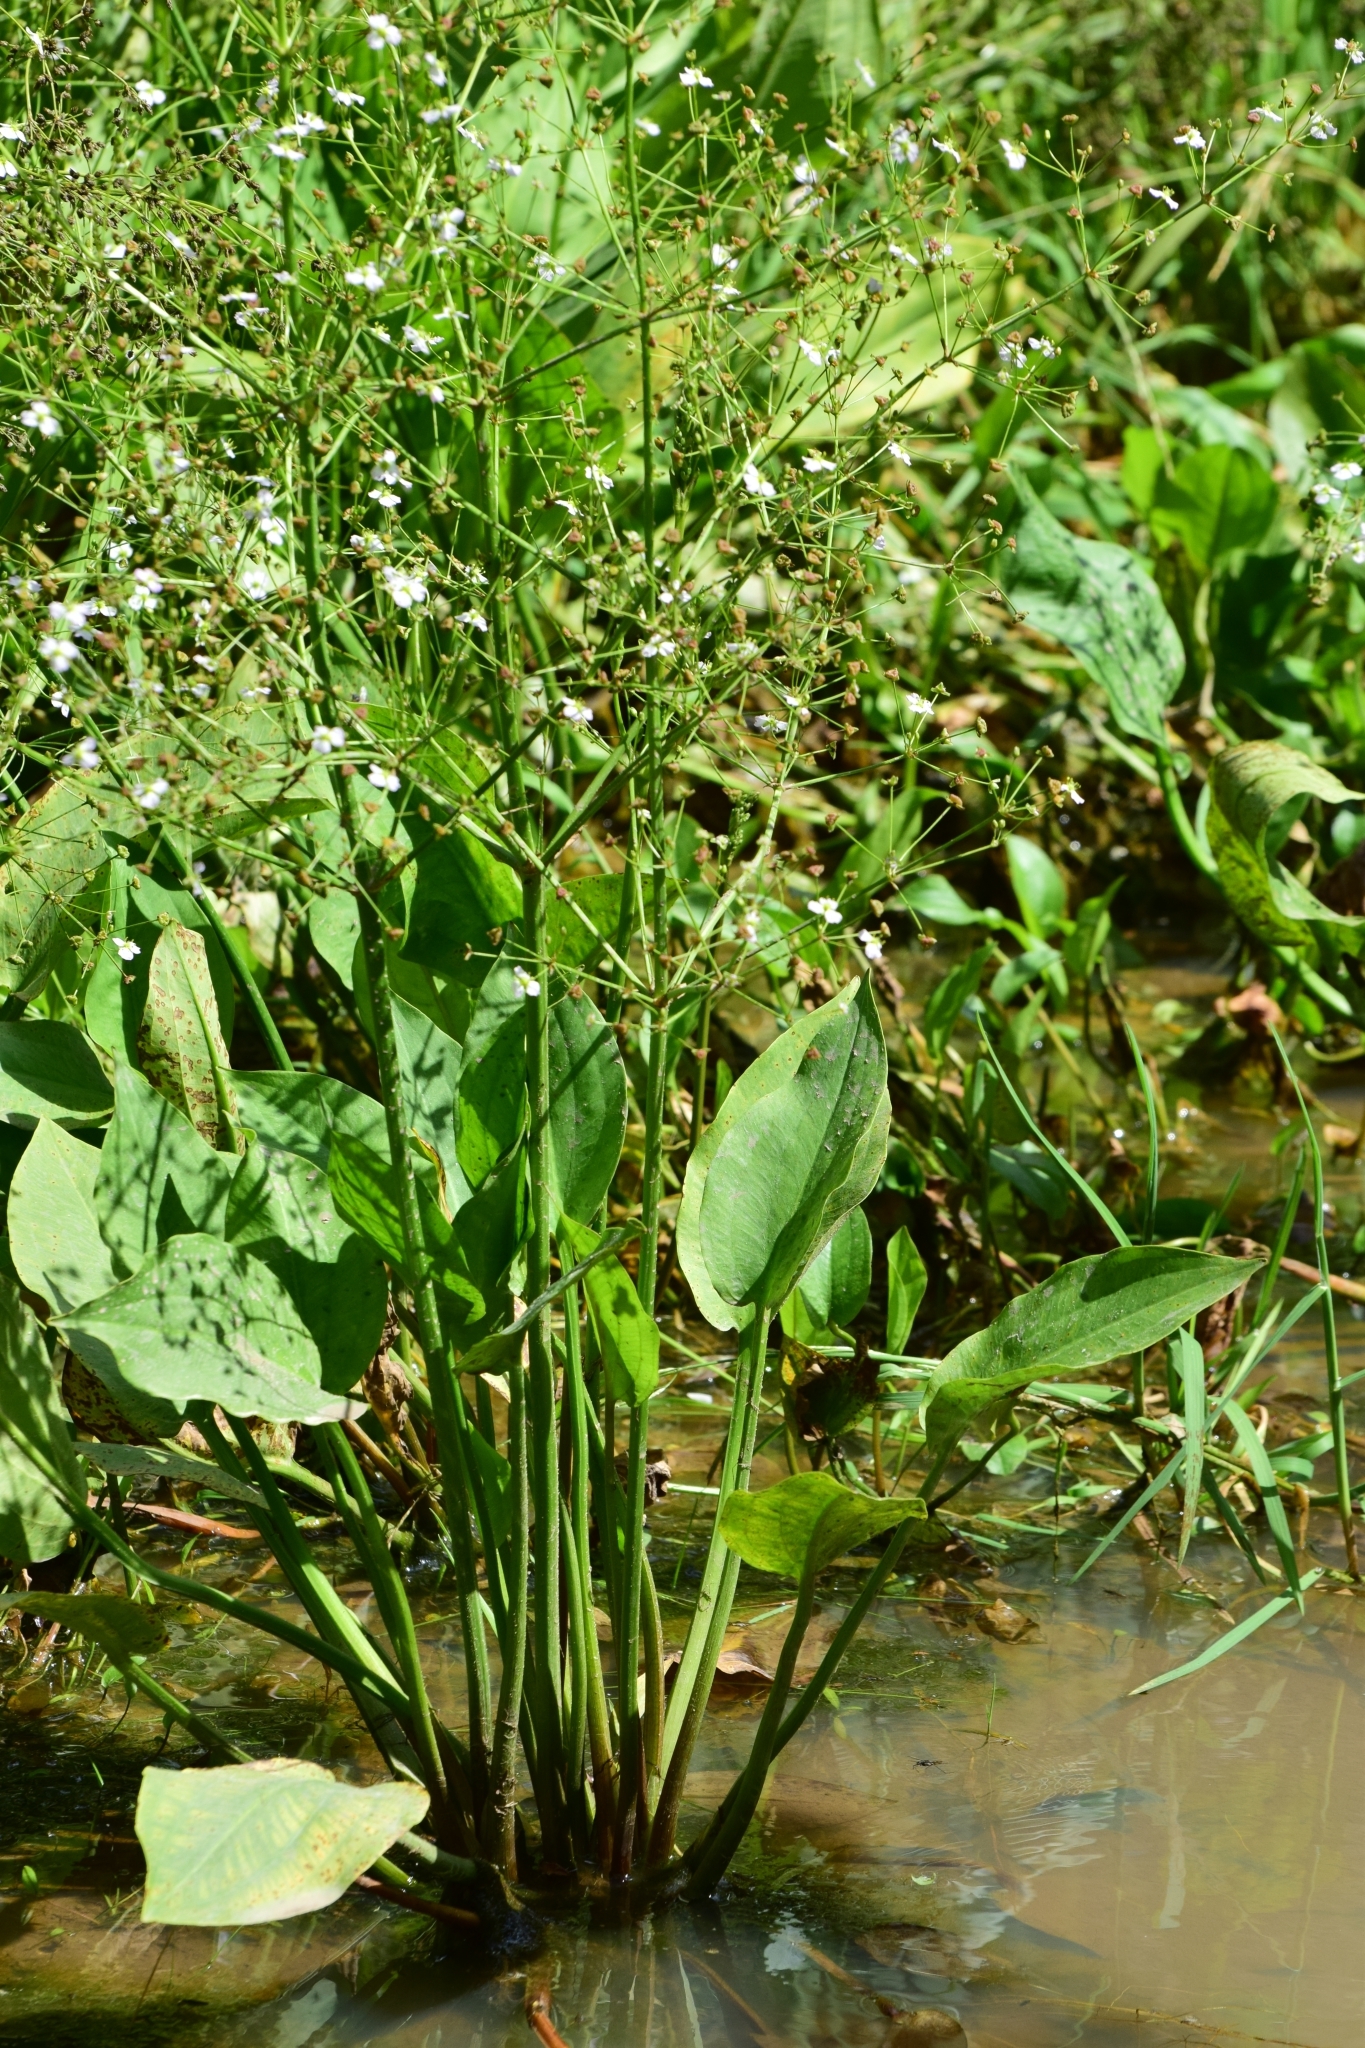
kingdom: Plantae
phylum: Tracheophyta
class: Liliopsida
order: Alismatales
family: Alismataceae
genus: Alisma
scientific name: Alisma plantago-aquatica
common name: Water-plantain
